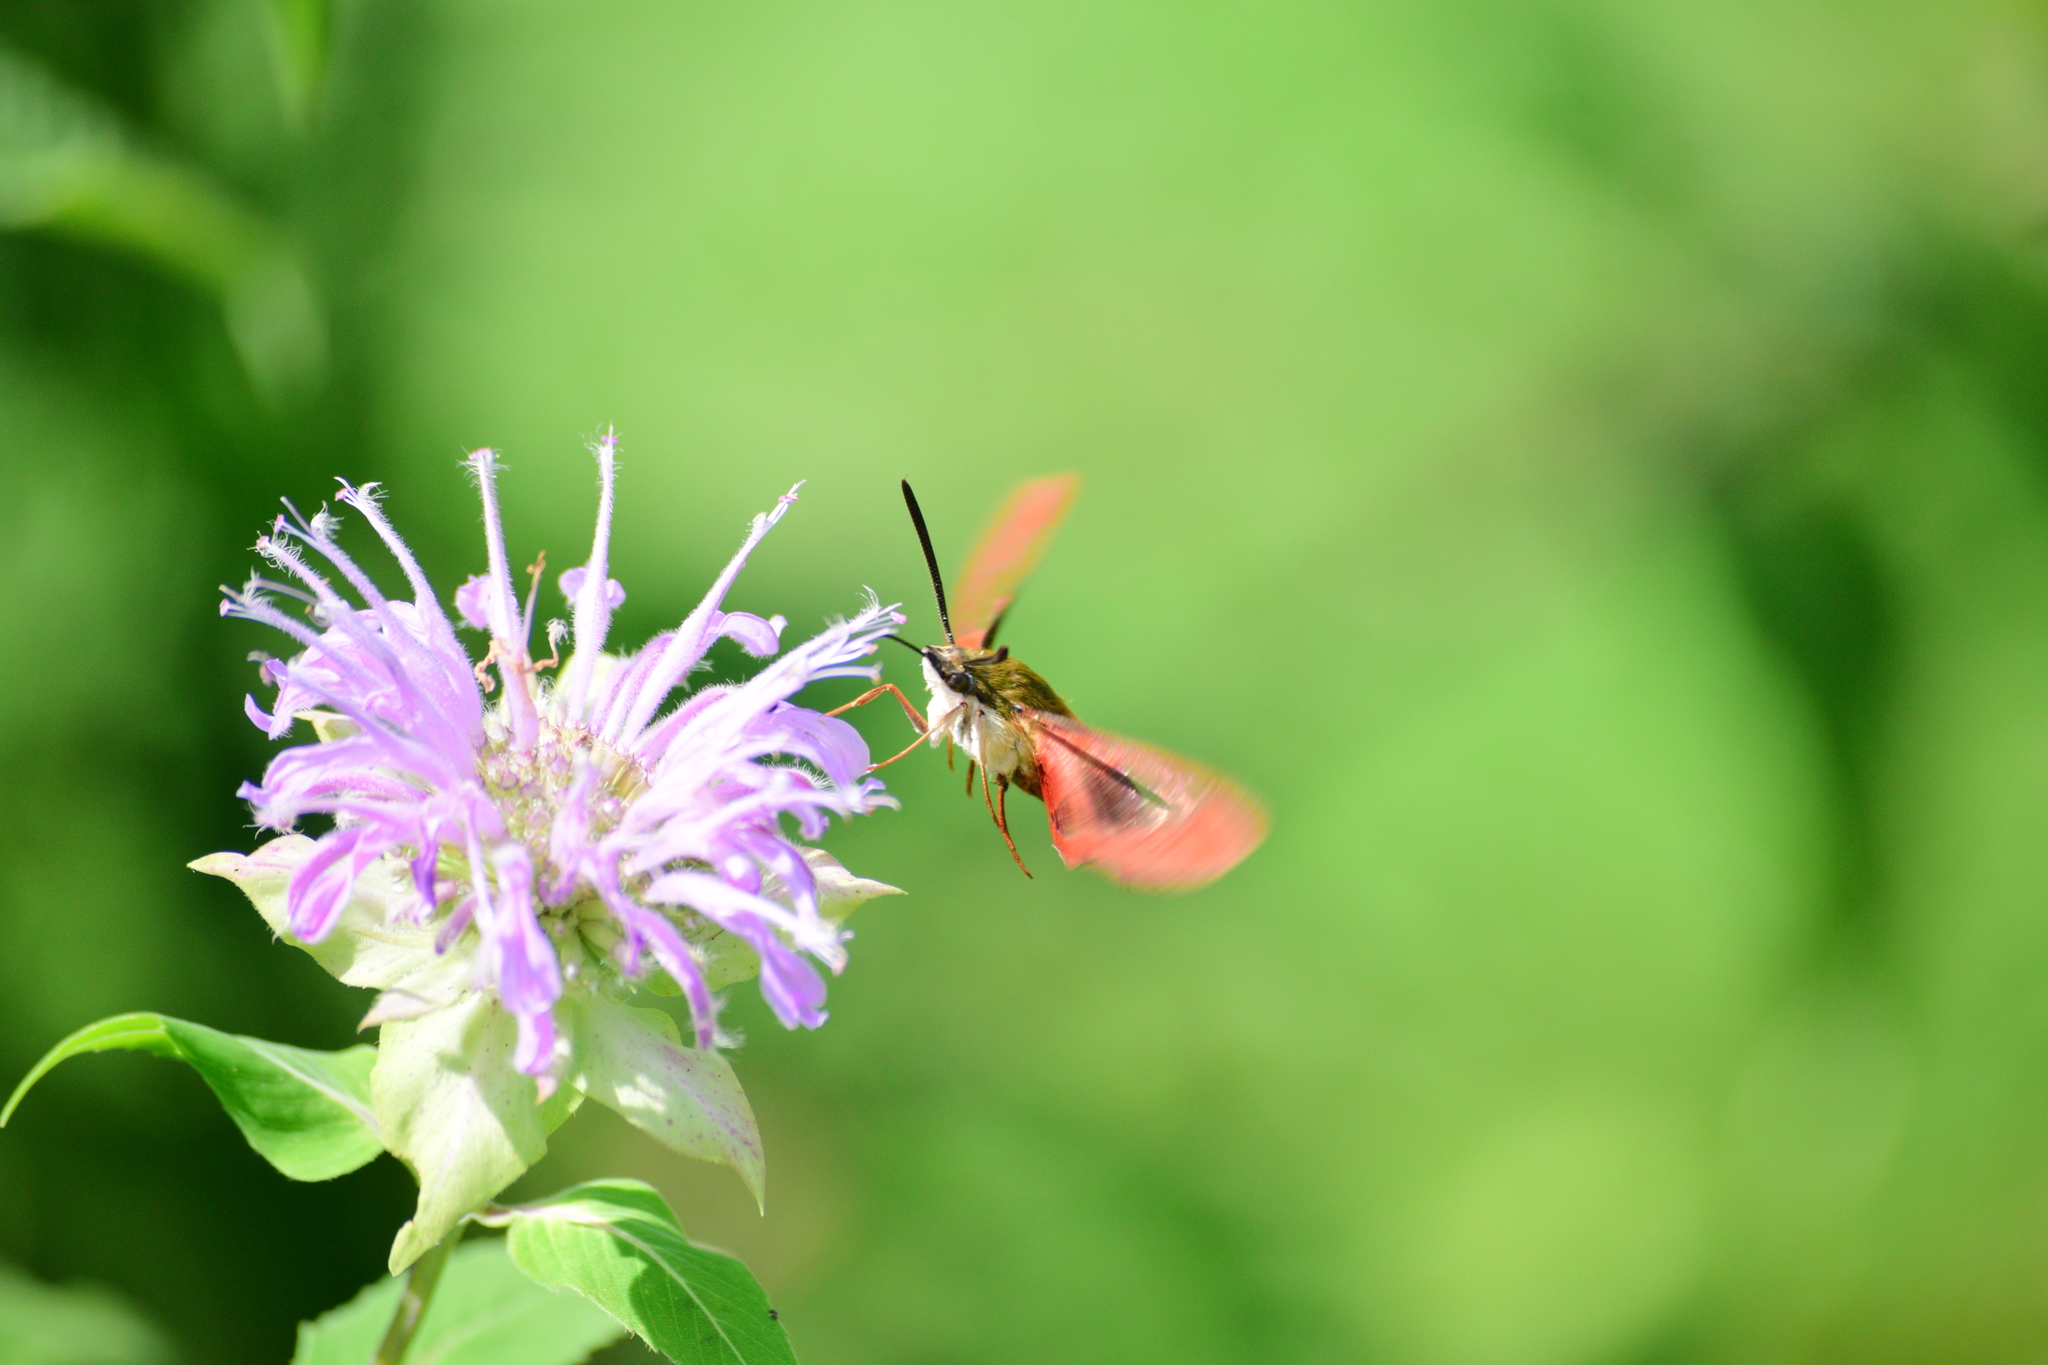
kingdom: Animalia
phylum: Arthropoda
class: Insecta
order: Lepidoptera
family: Sphingidae
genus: Hemaris
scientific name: Hemaris thysbe
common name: Common clear-wing
